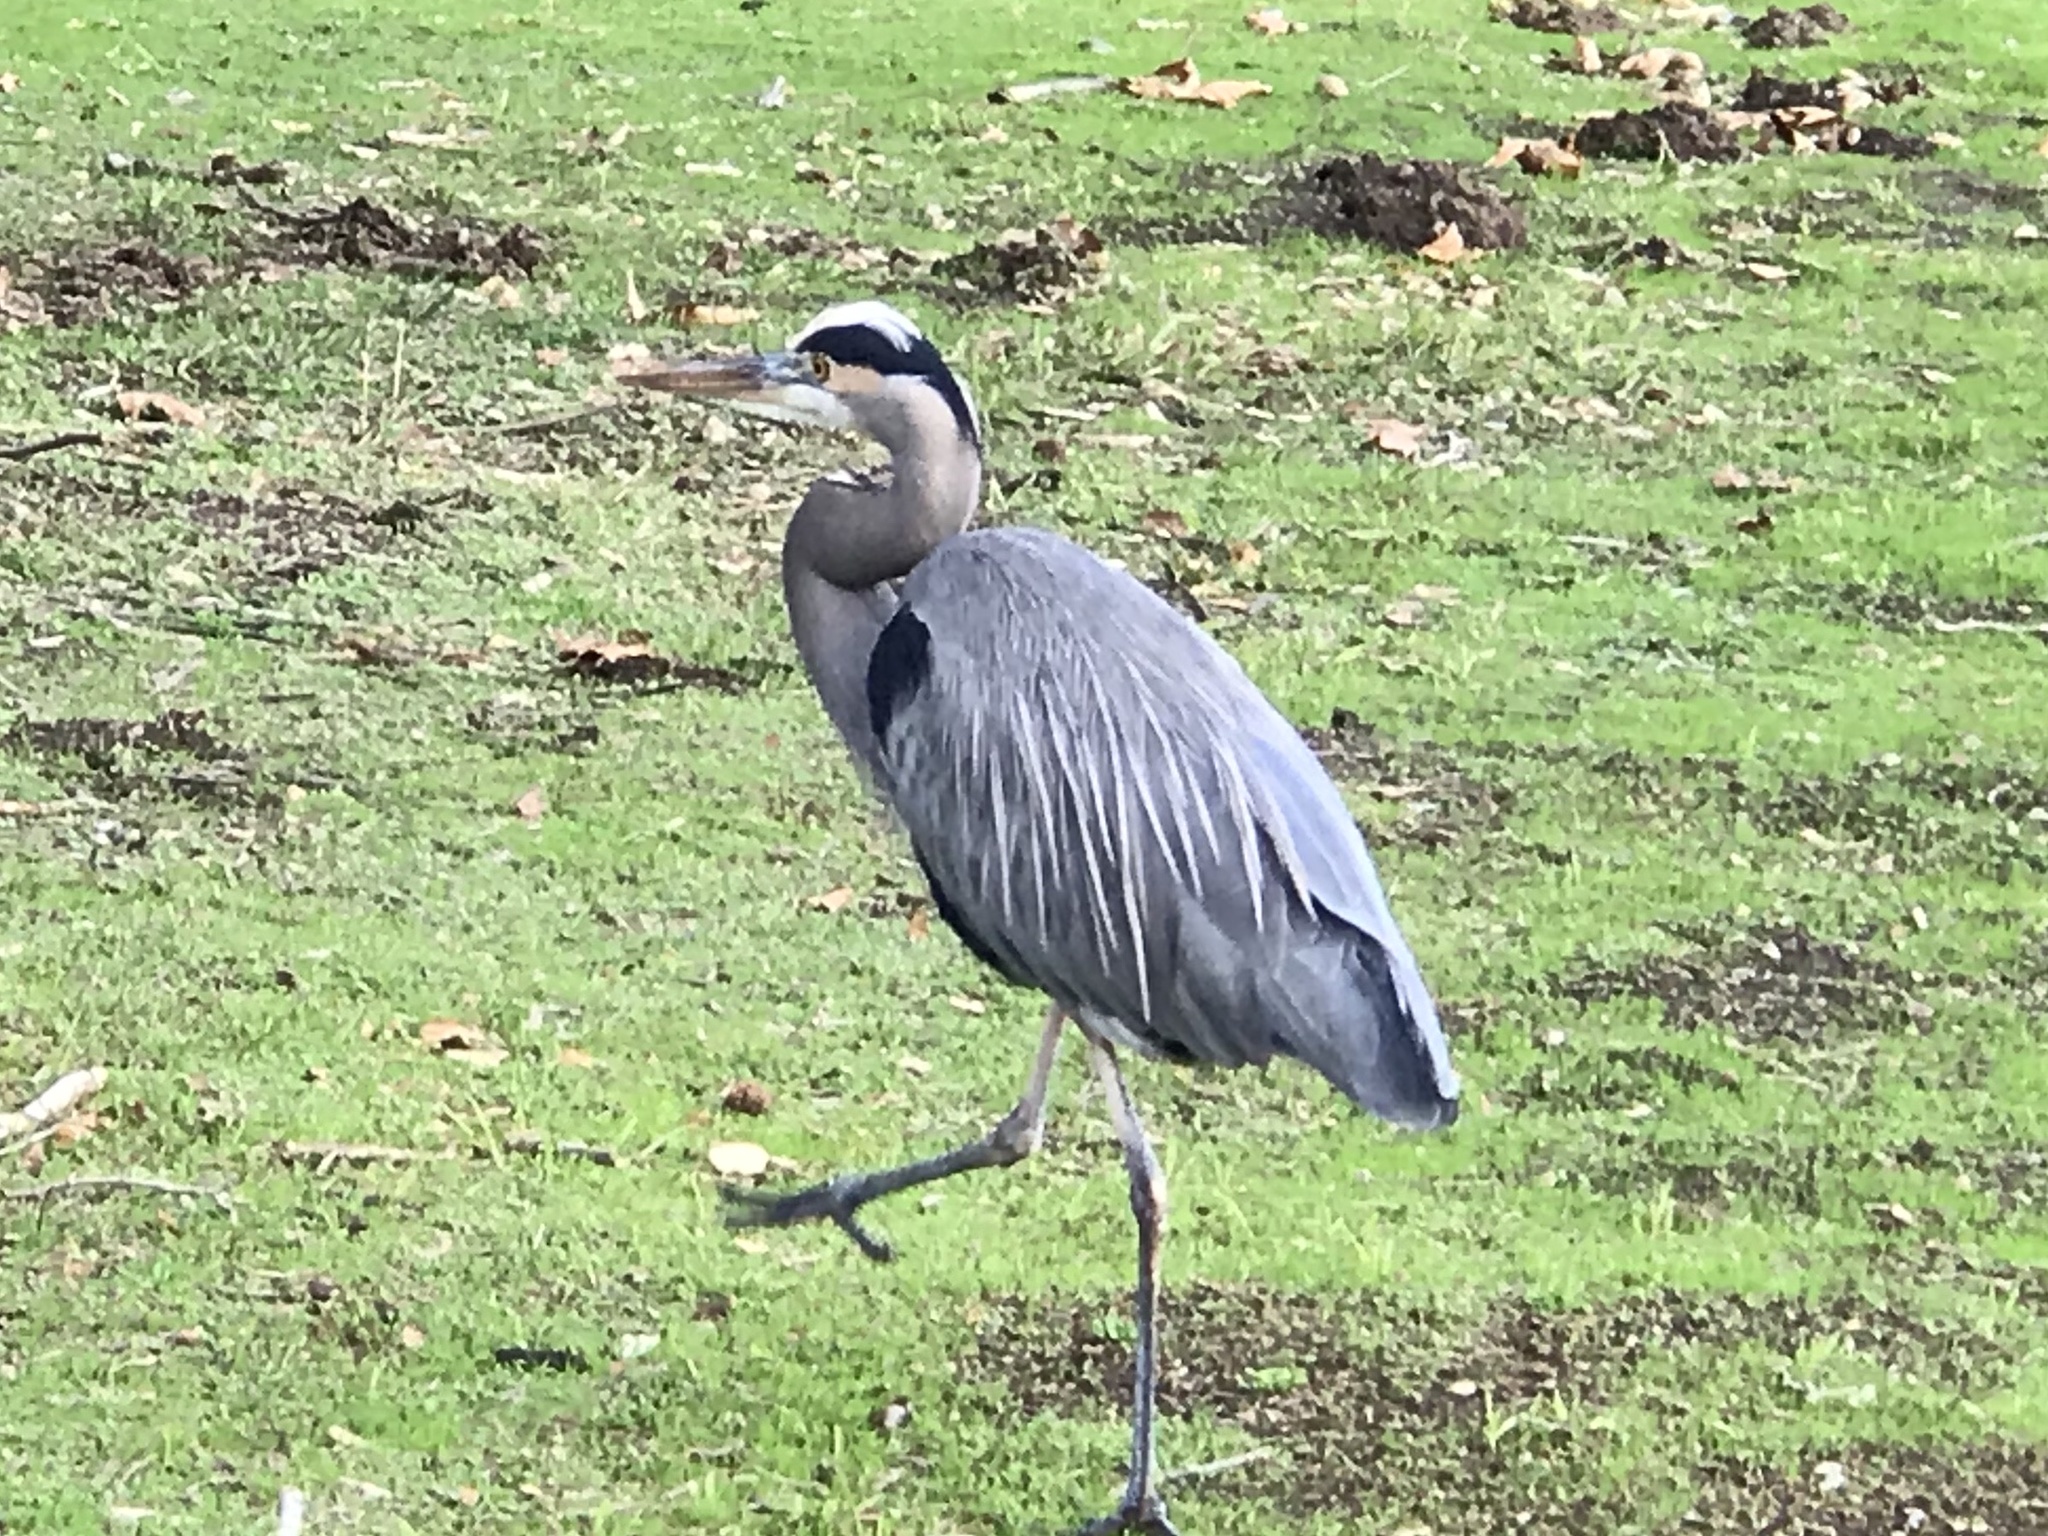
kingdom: Animalia
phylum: Chordata
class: Aves
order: Pelecaniformes
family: Ardeidae
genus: Ardea
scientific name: Ardea herodias
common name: Great blue heron
